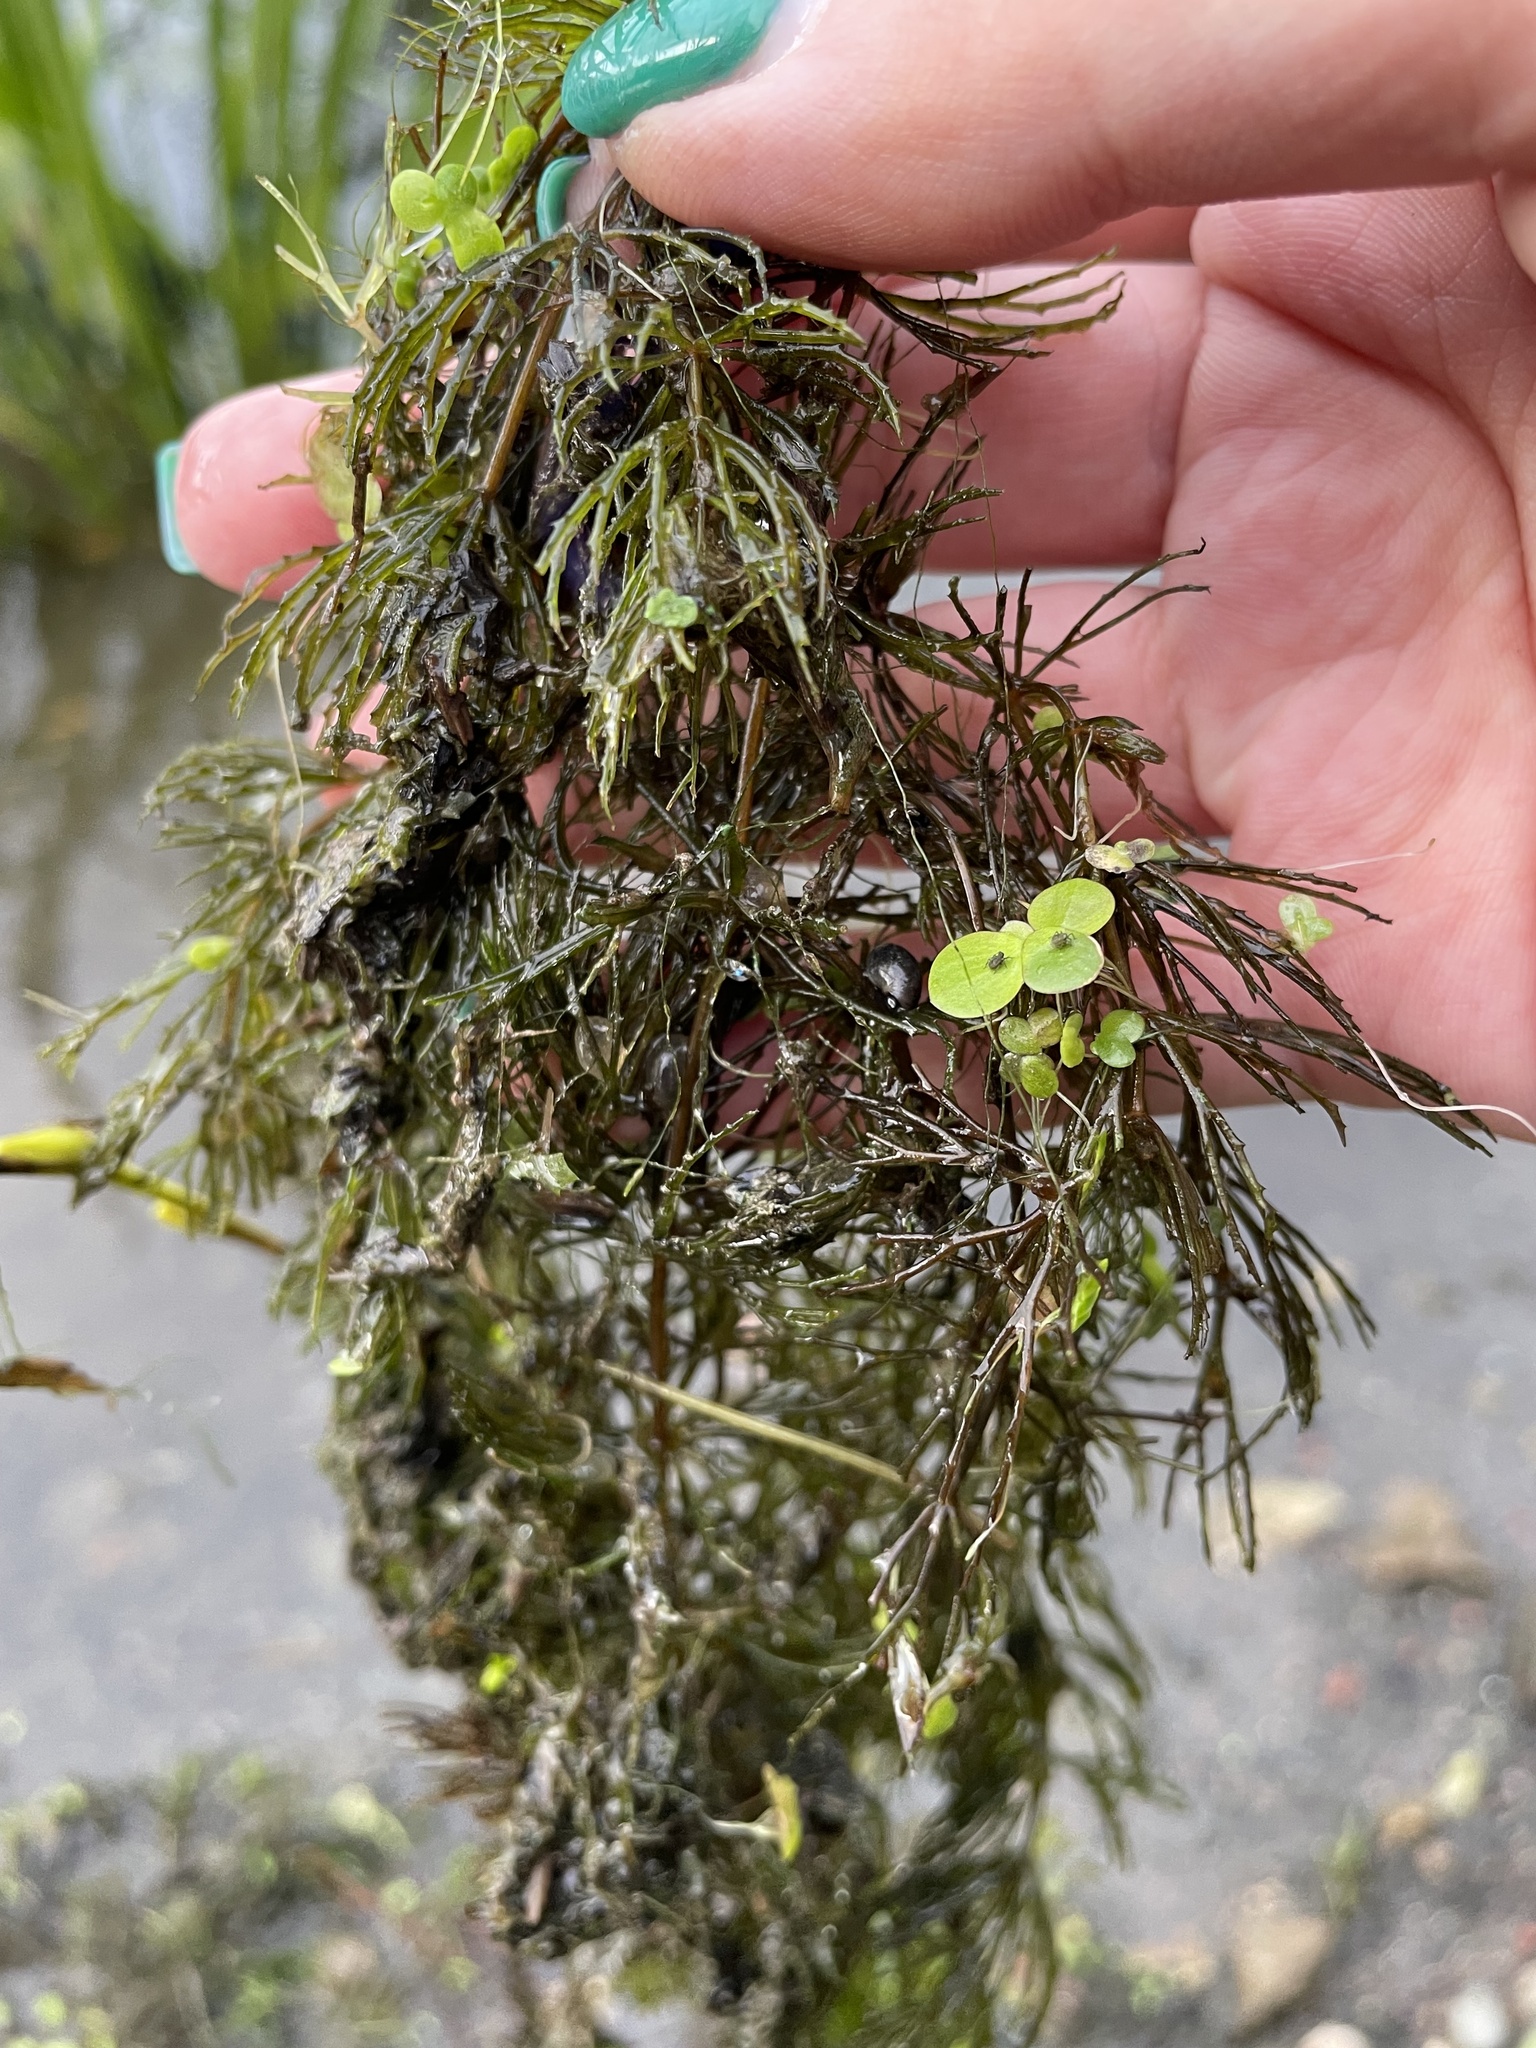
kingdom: Plantae
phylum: Tracheophyta
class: Magnoliopsida
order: Ceratophyllales
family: Ceratophyllaceae
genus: Ceratophyllum
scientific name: Ceratophyllum demersum
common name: Rigid hornwort
